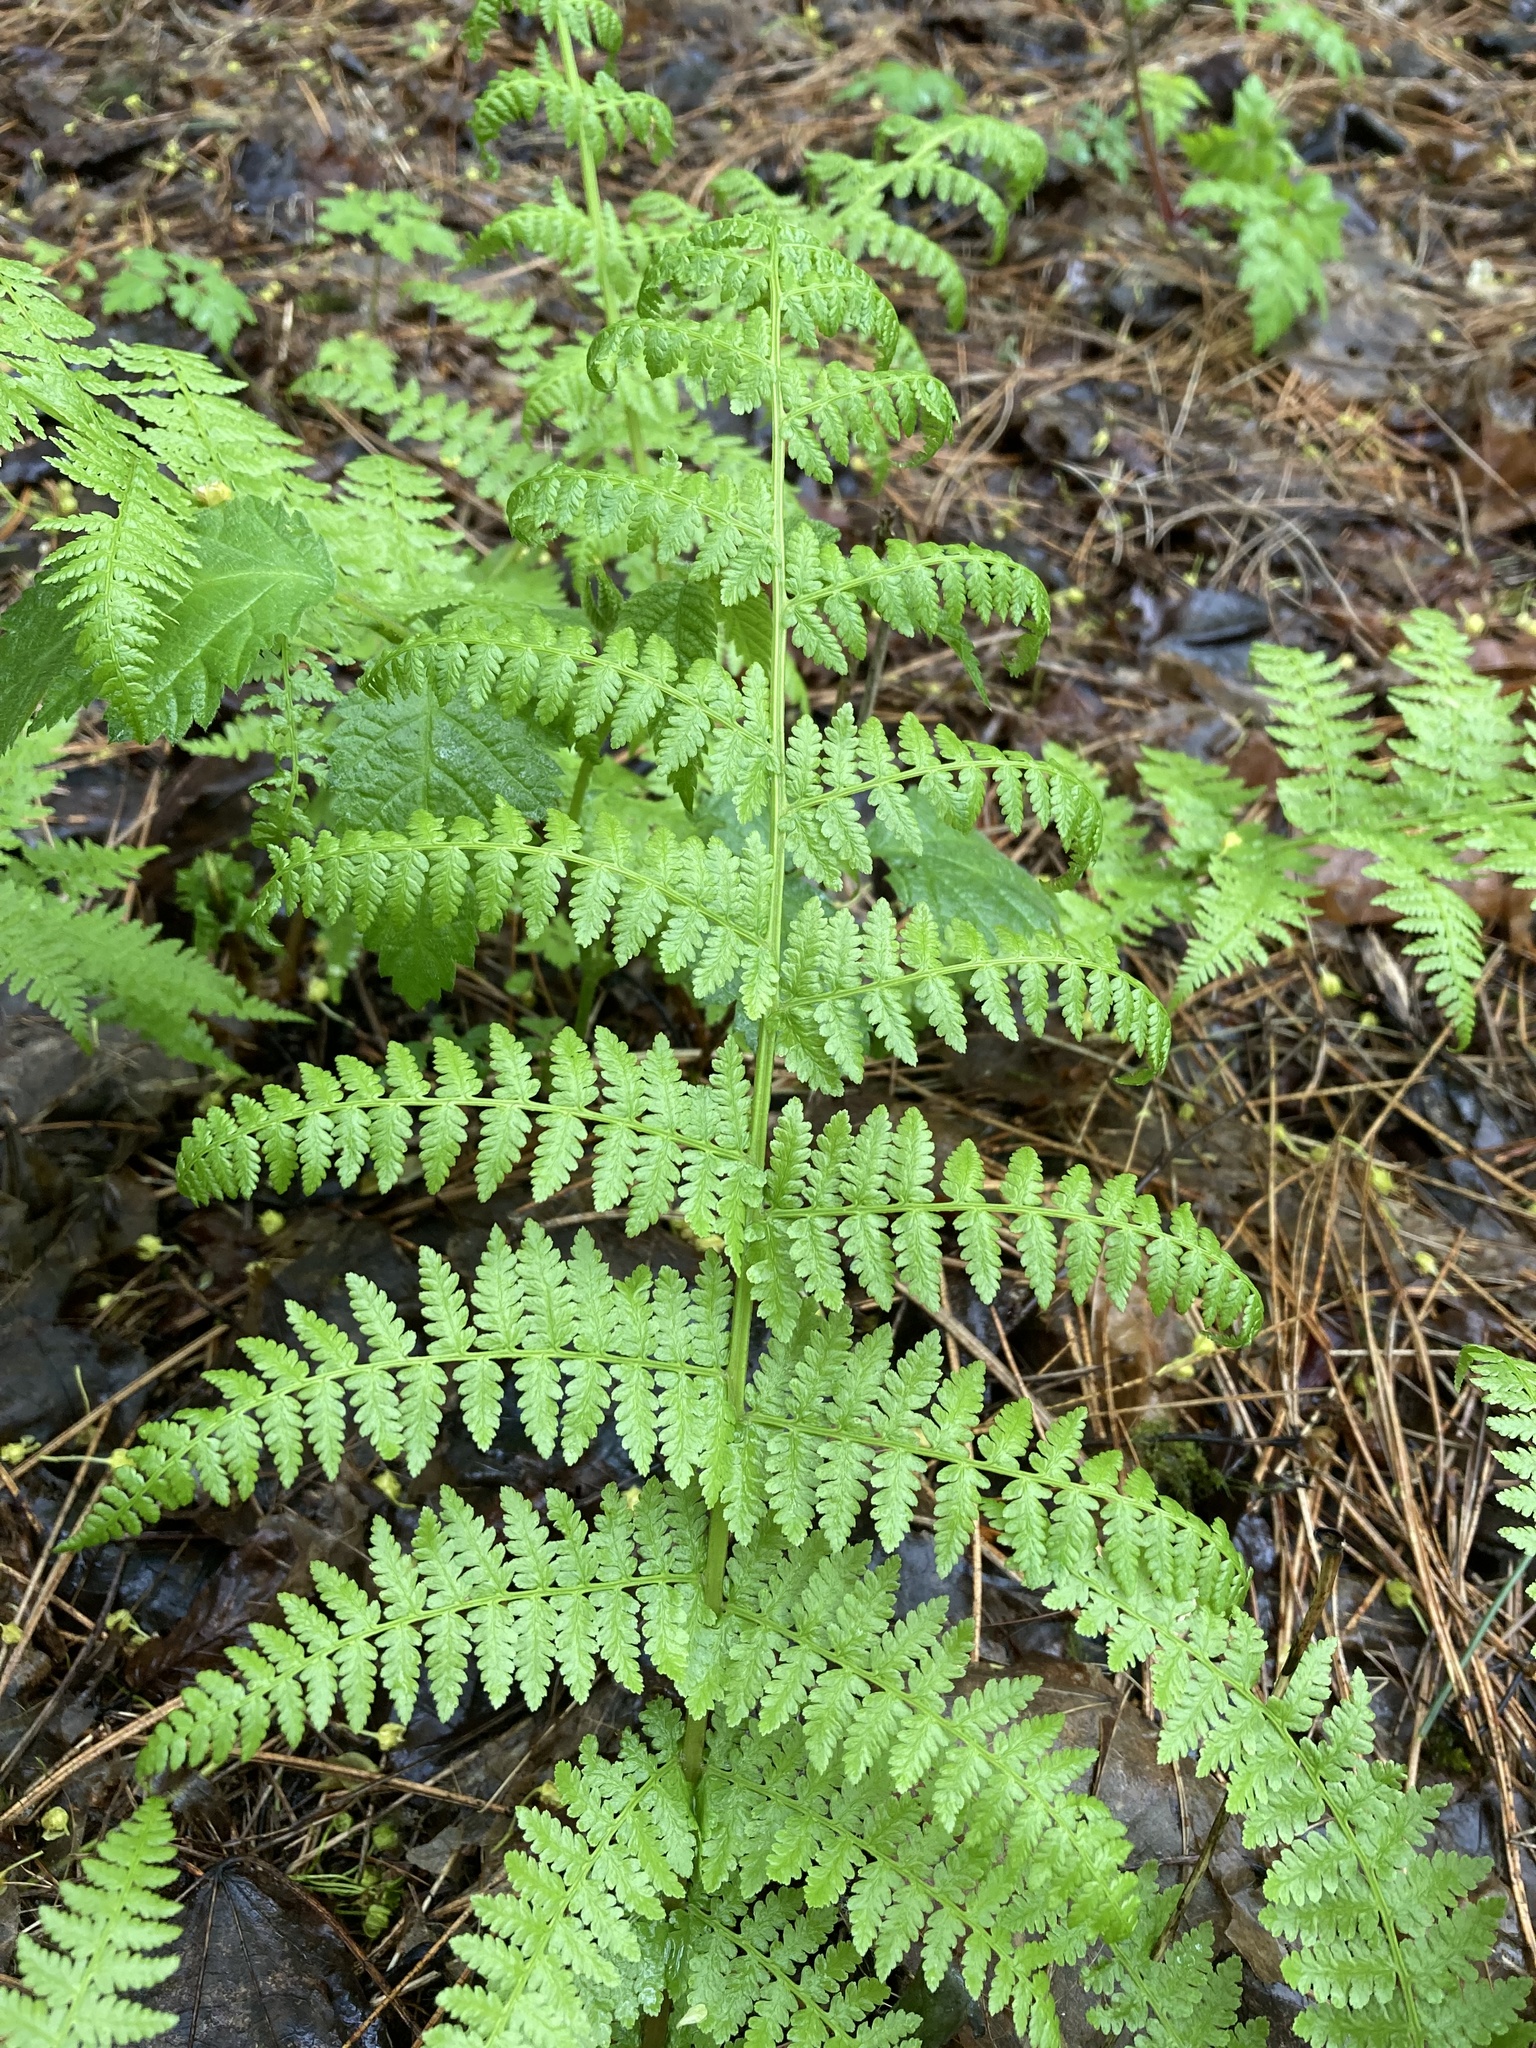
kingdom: Plantae
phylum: Tracheophyta
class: Polypodiopsida
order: Polypodiales
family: Athyriaceae
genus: Athyrium
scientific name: Athyrium filix-femina
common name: Lady fern
